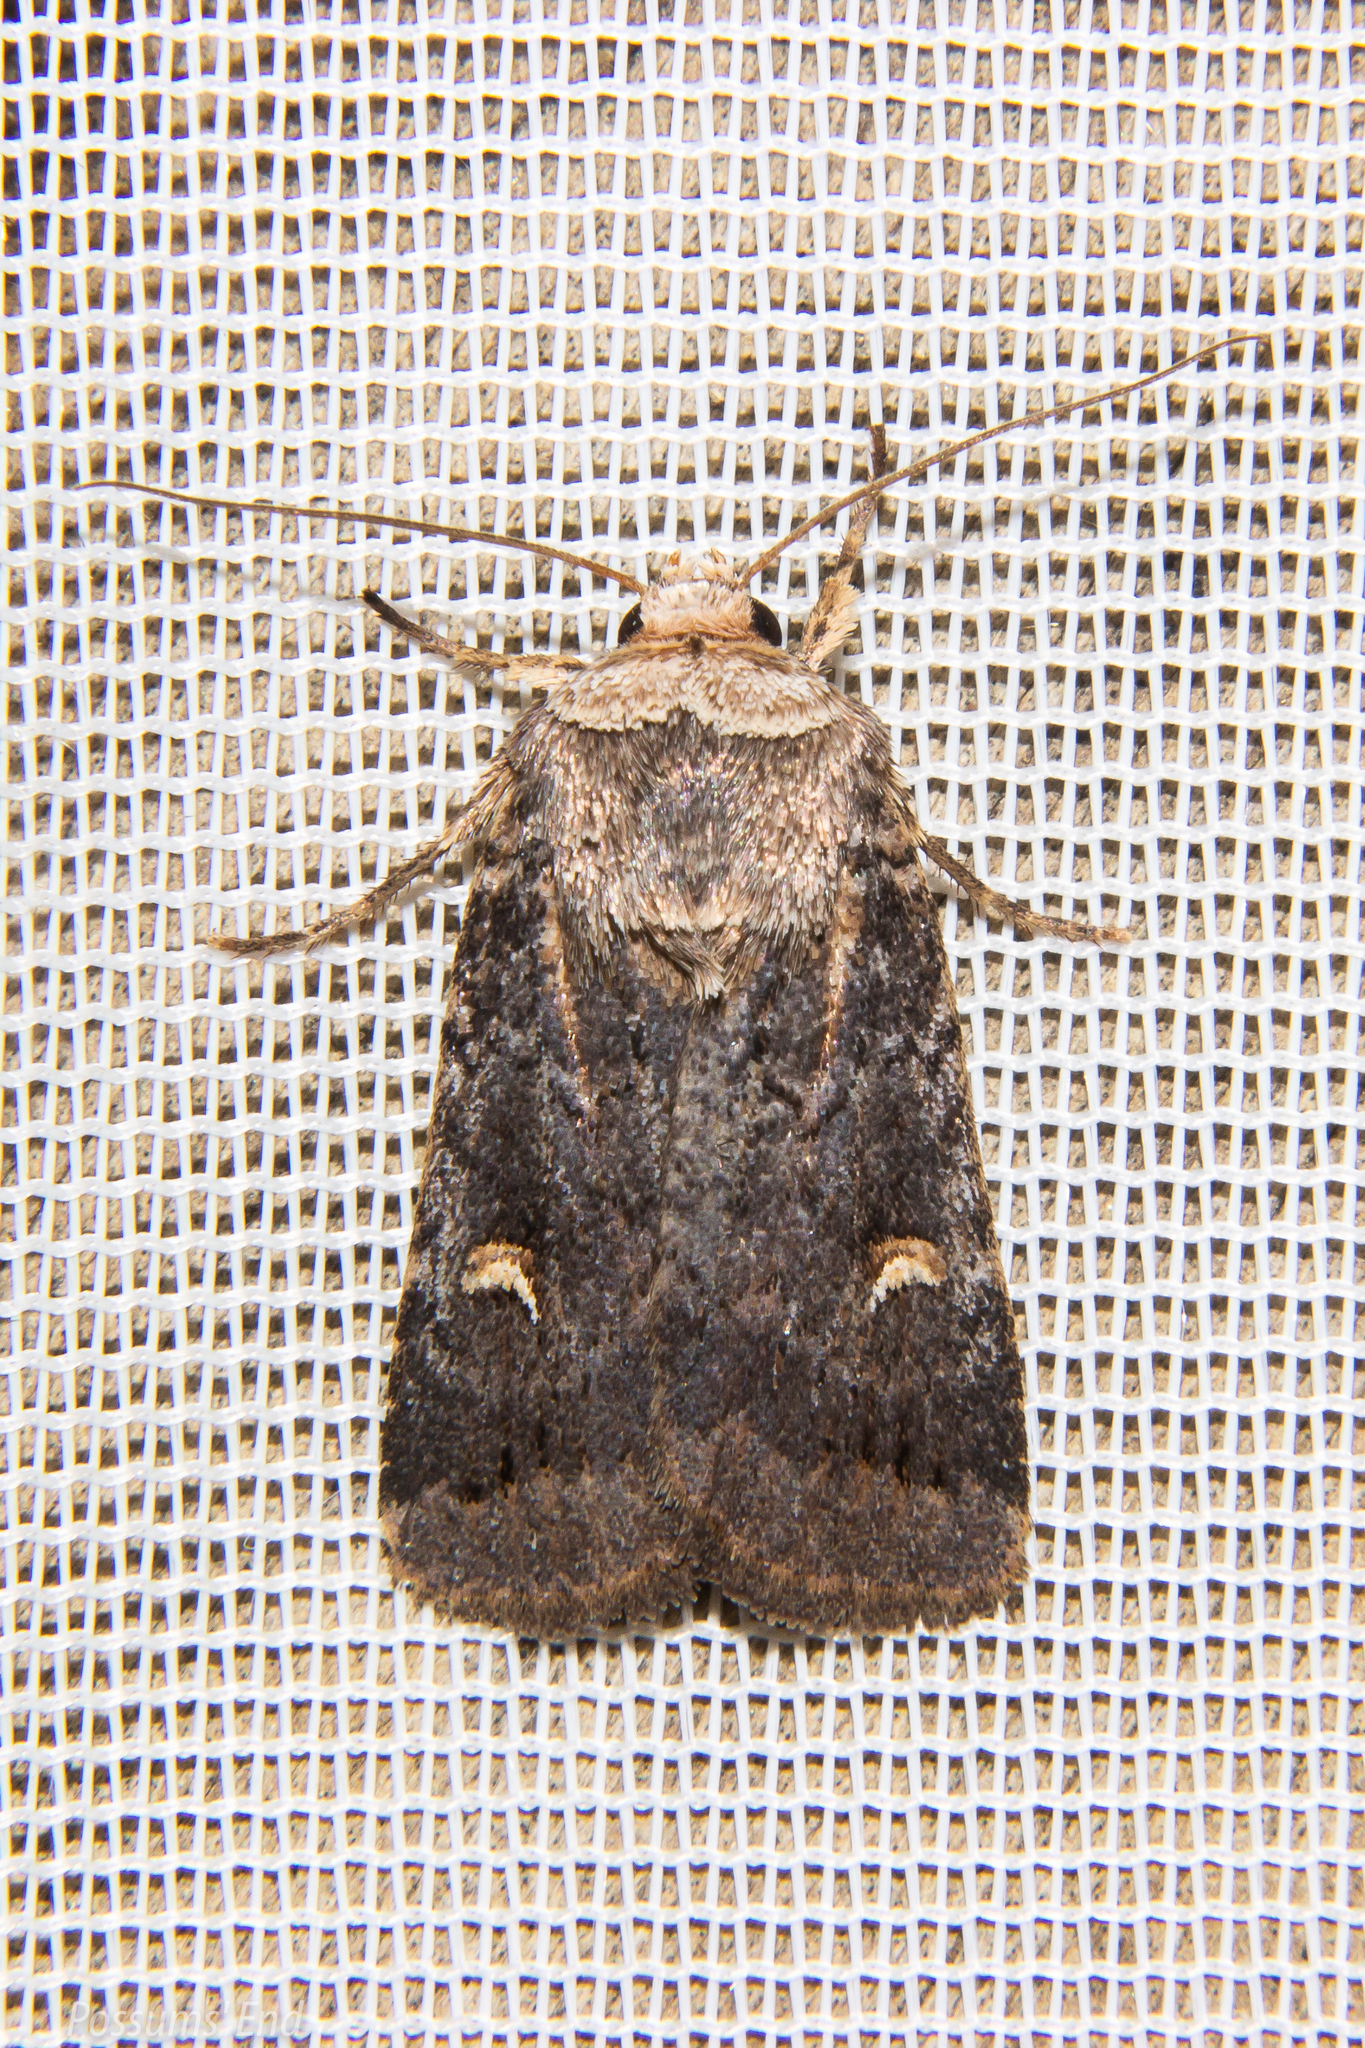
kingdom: Animalia
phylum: Arthropoda
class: Insecta
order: Lepidoptera
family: Noctuidae
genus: Proteuxoa
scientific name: Proteuxoa tetronycha
